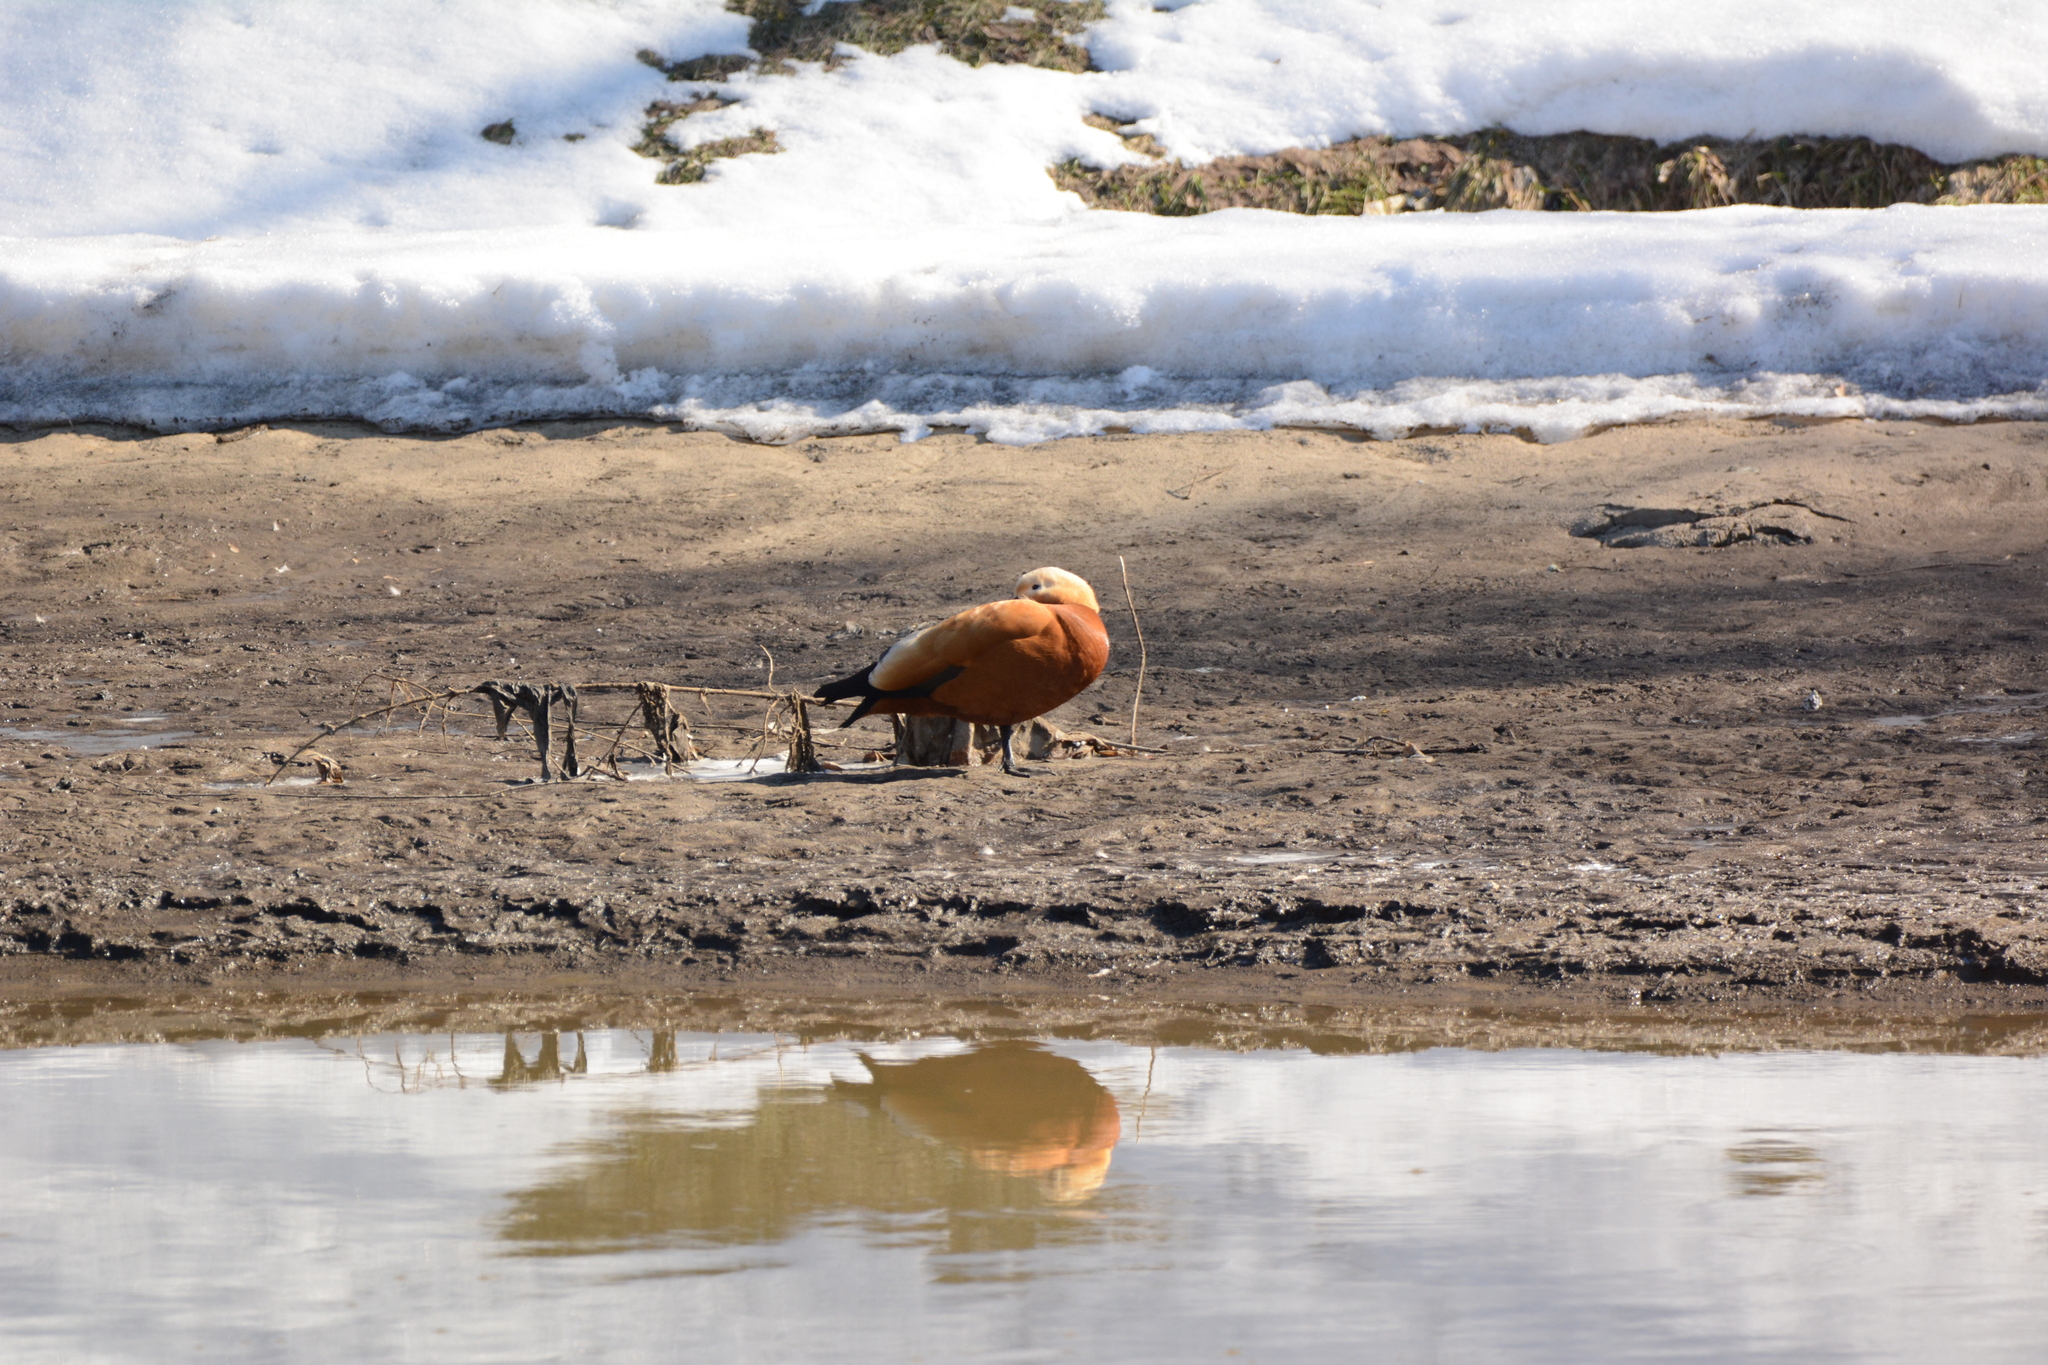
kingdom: Animalia
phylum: Chordata
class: Aves
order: Anseriformes
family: Anatidae
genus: Tadorna
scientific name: Tadorna ferruginea
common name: Ruddy shelduck
